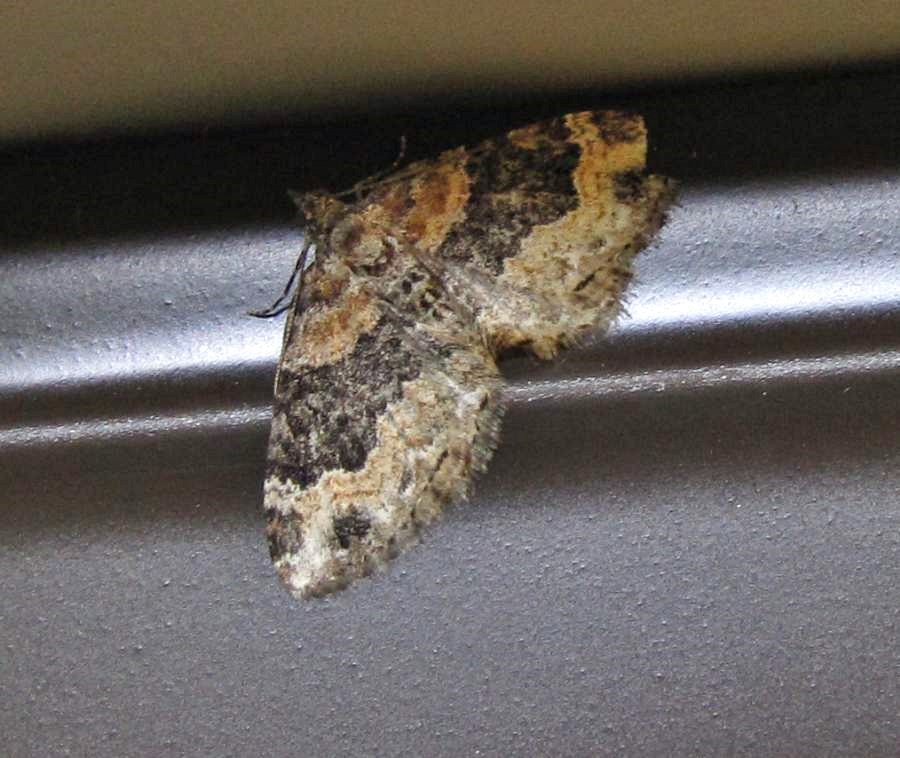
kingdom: Animalia
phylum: Arthropoda
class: Insecta
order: Lepidoptera
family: Geometridae
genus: Xanthorhoe
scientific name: Xanthorhoe ferrugata
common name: Dark-barred twin-spot carpet
